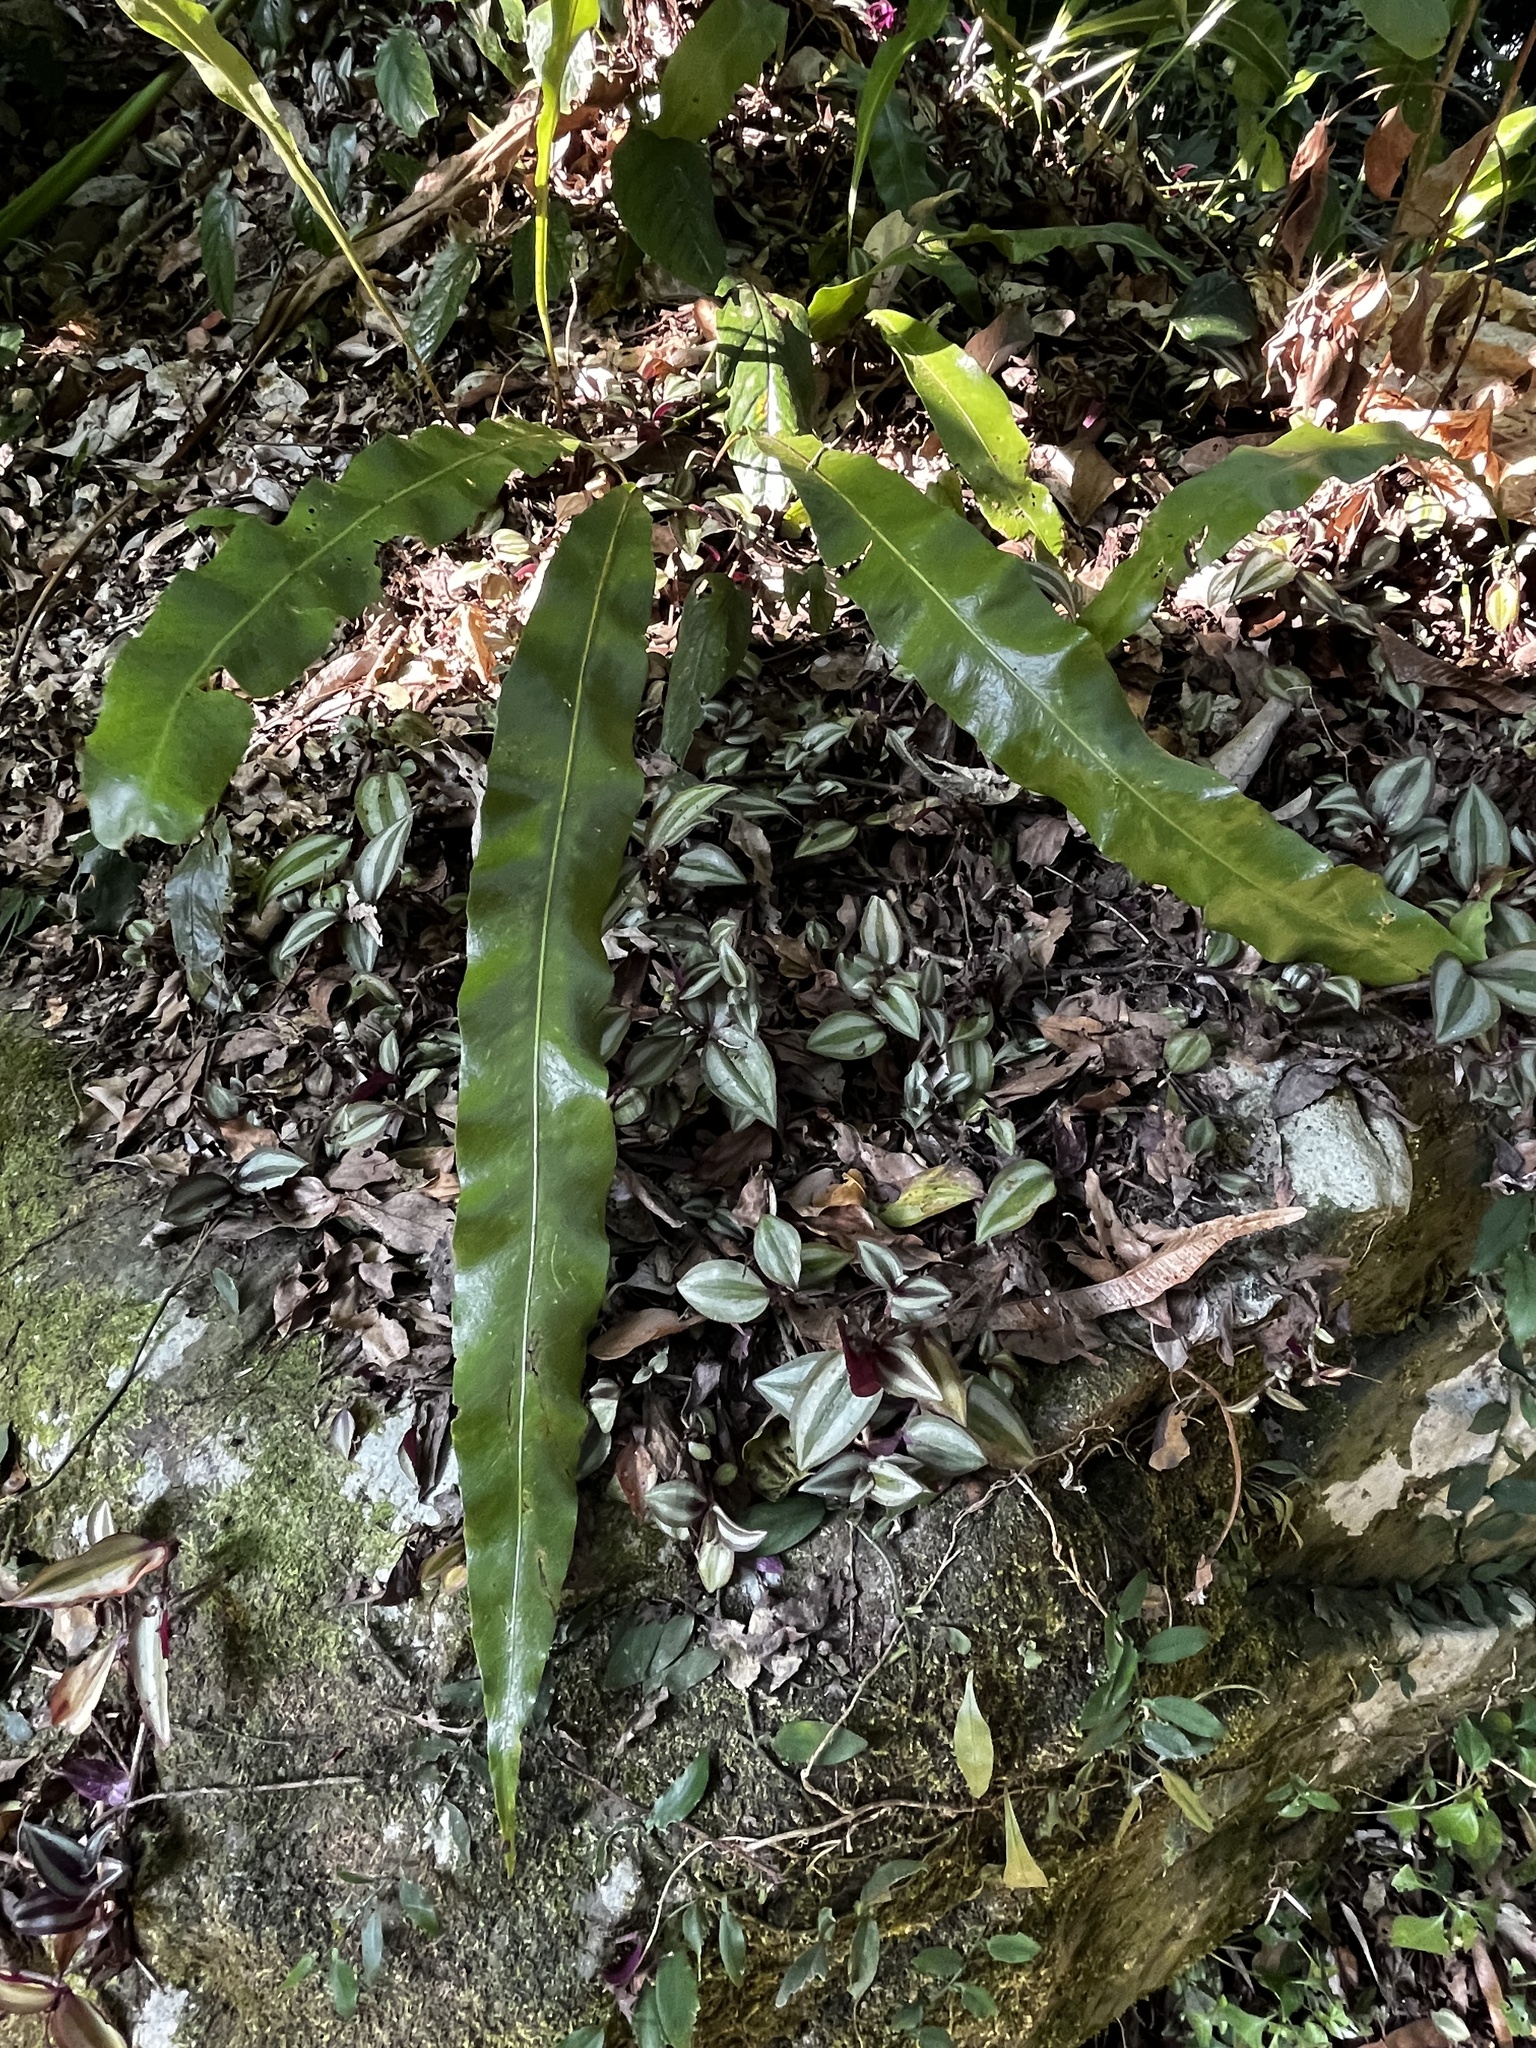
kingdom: Plantae
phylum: Tracheophyta
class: Polypodiopsida
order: Polypodiales
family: Polypodiaceae
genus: Lepisorus
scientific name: Lepisorus fortuni
